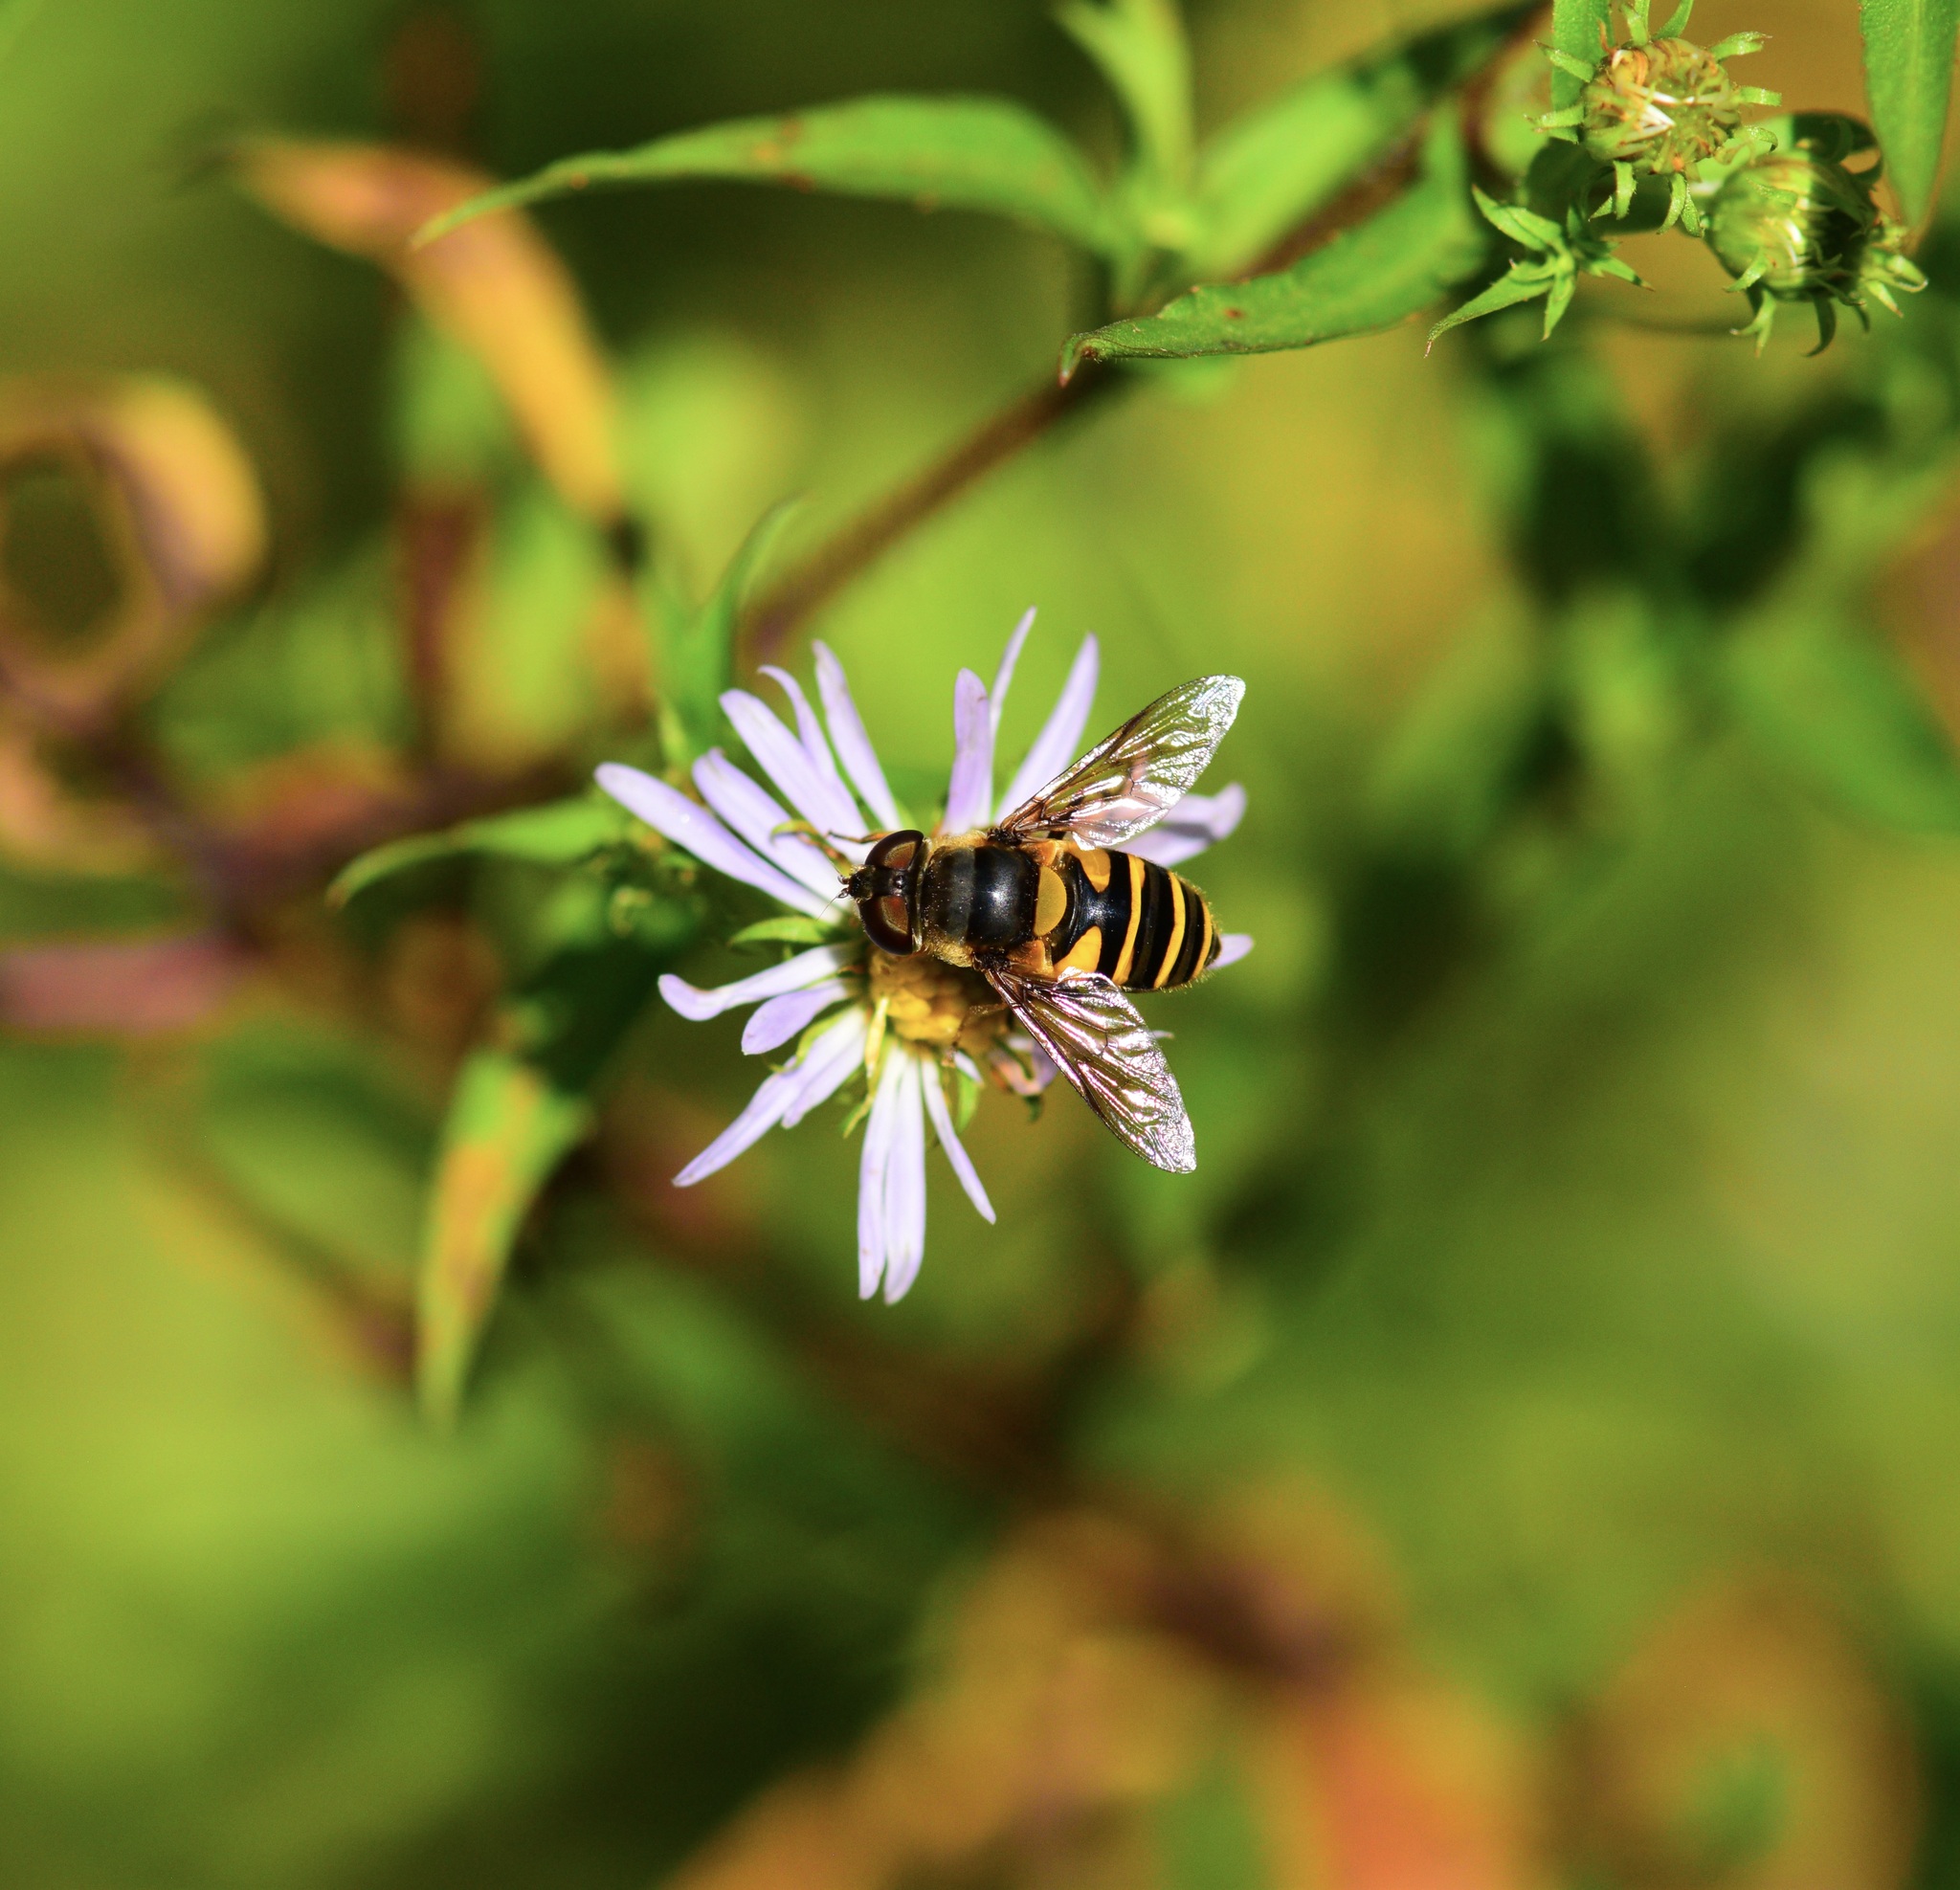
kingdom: Animalia
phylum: Arthropoda
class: Insecta
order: Diptera
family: Syrphidae
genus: Eristalis
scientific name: Eristalis transversa
